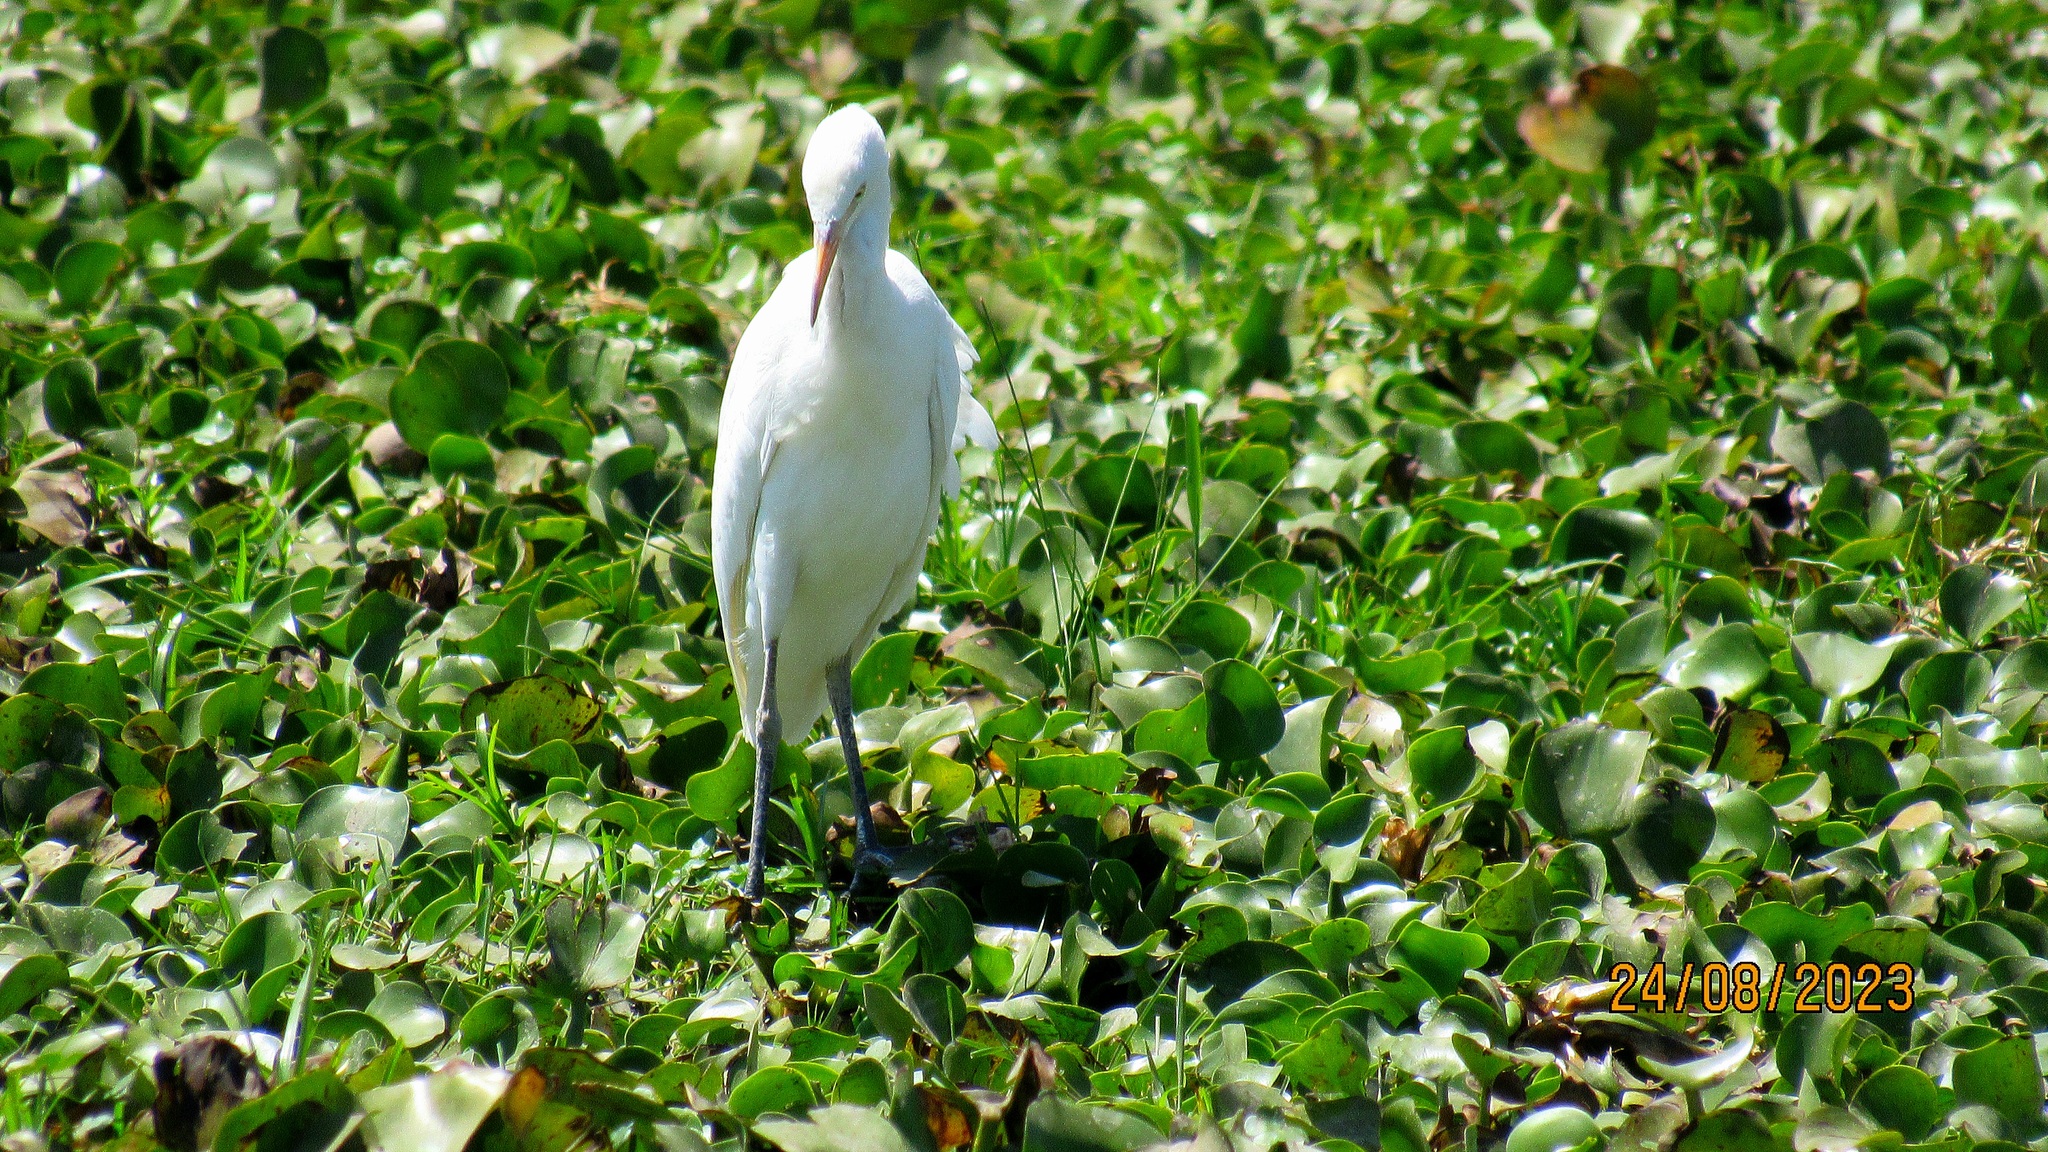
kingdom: Animalia
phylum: Chordata
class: Aves
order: Pelecaniformes
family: Ardeidae
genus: Bubulcus
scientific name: Bubulcus ibis
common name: Cattle egret
